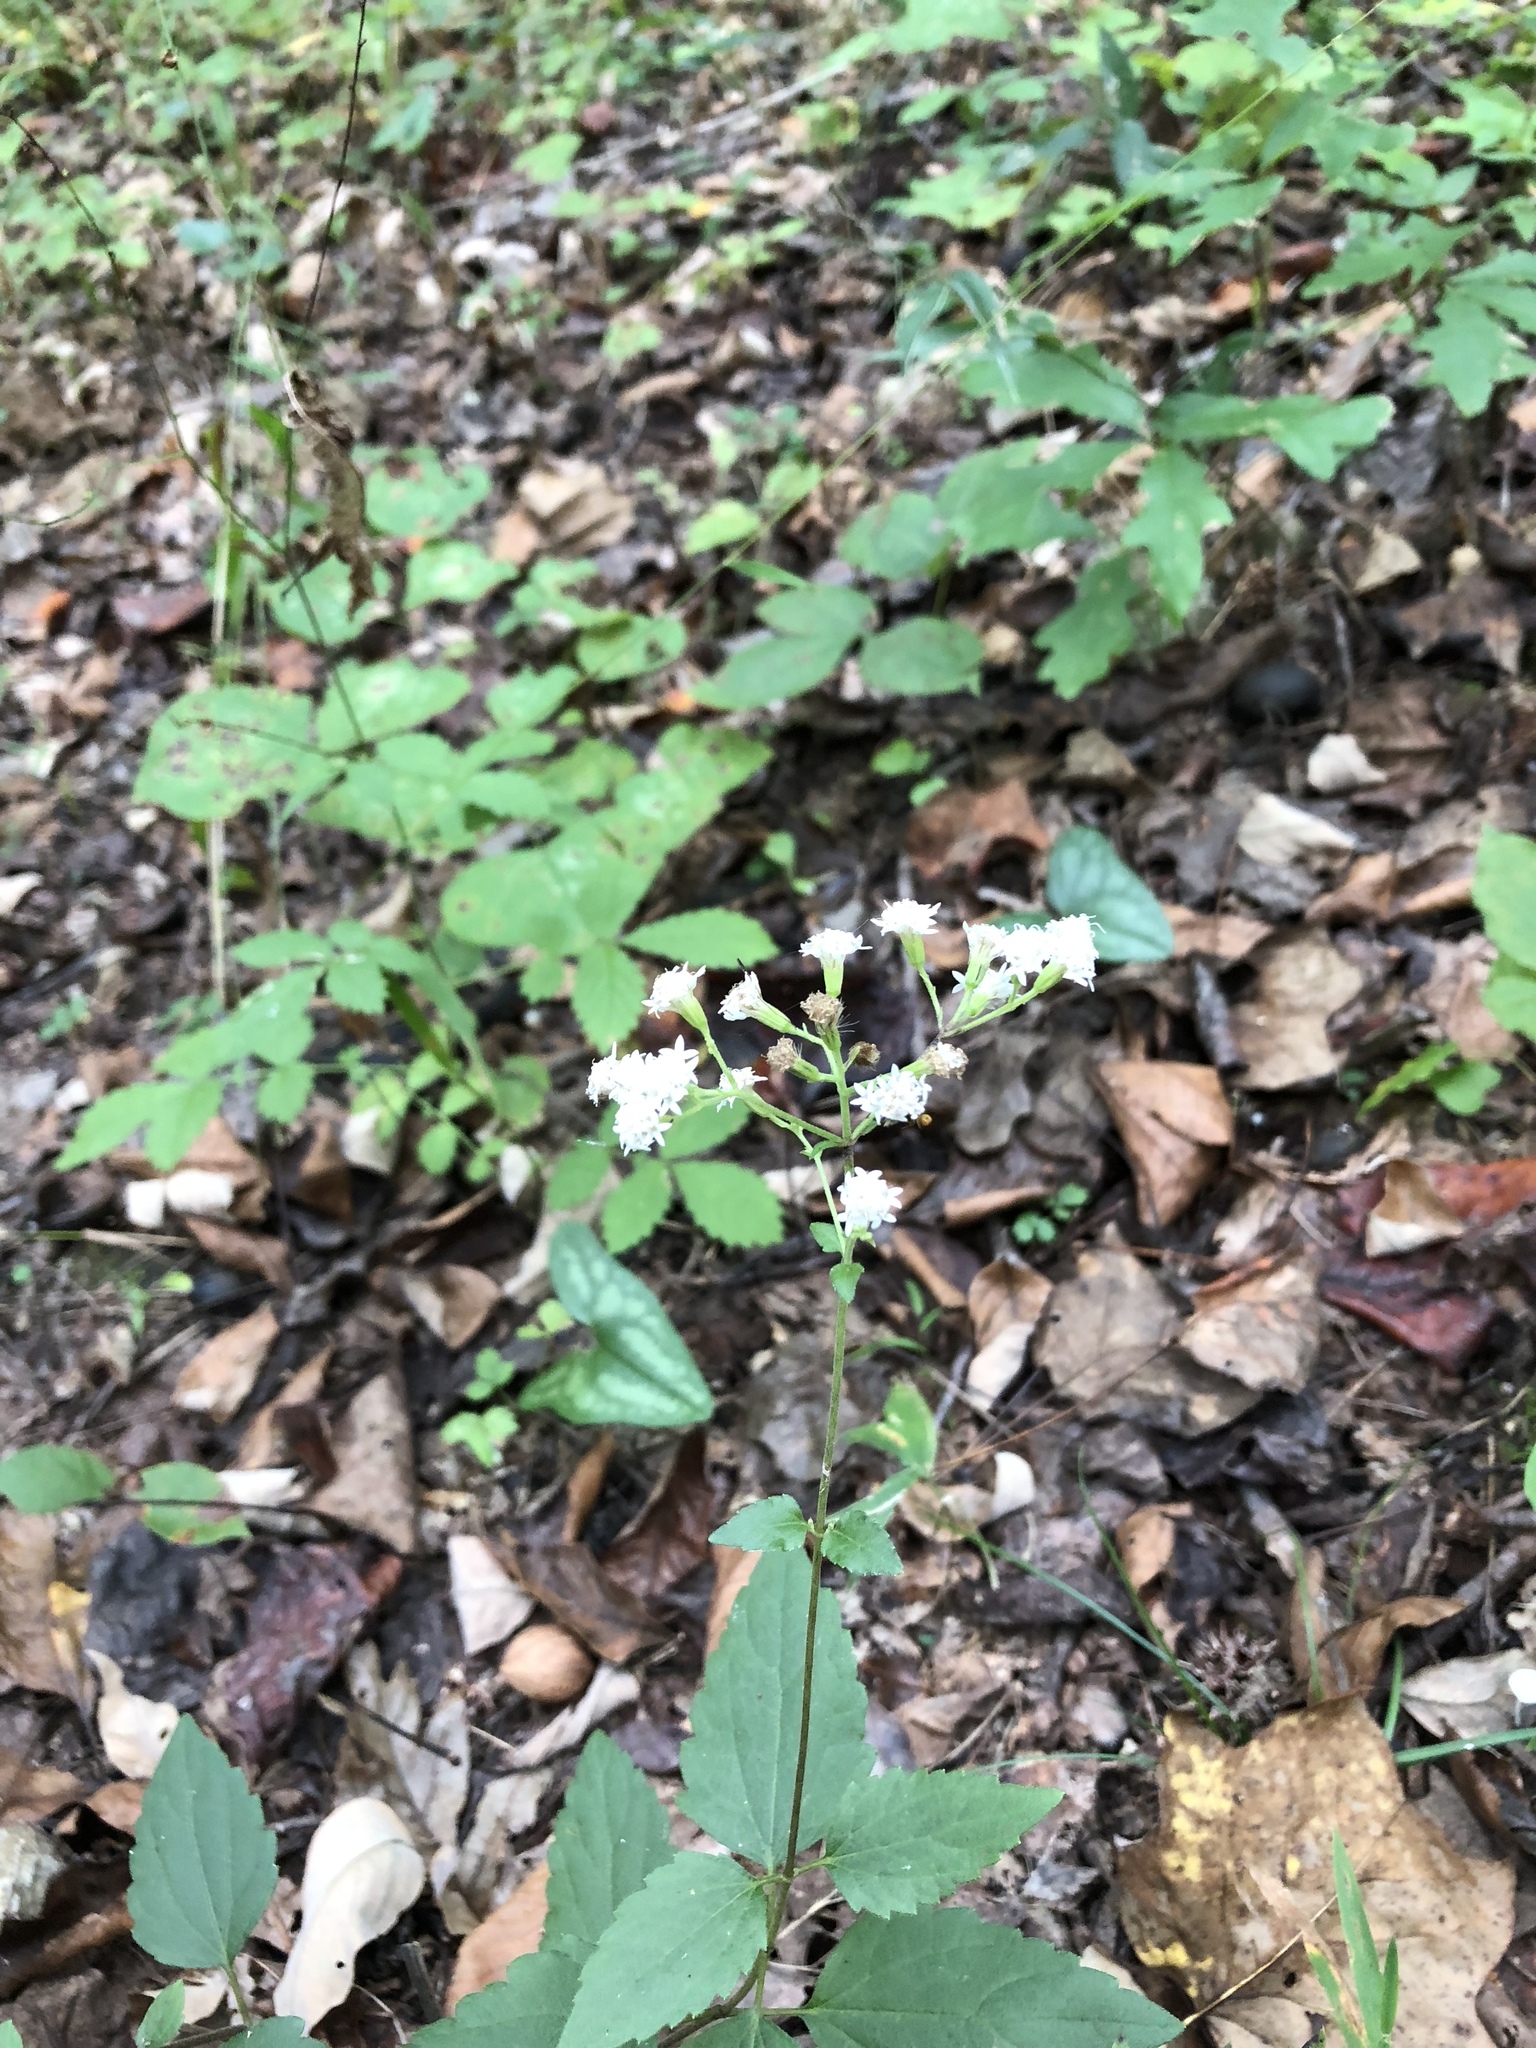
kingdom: Plantae
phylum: Tracheophyta
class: Magnoliopsida
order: Asterales
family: Asteraceae
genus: Ageratina
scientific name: Ageratina altissima
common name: White snakeroot
